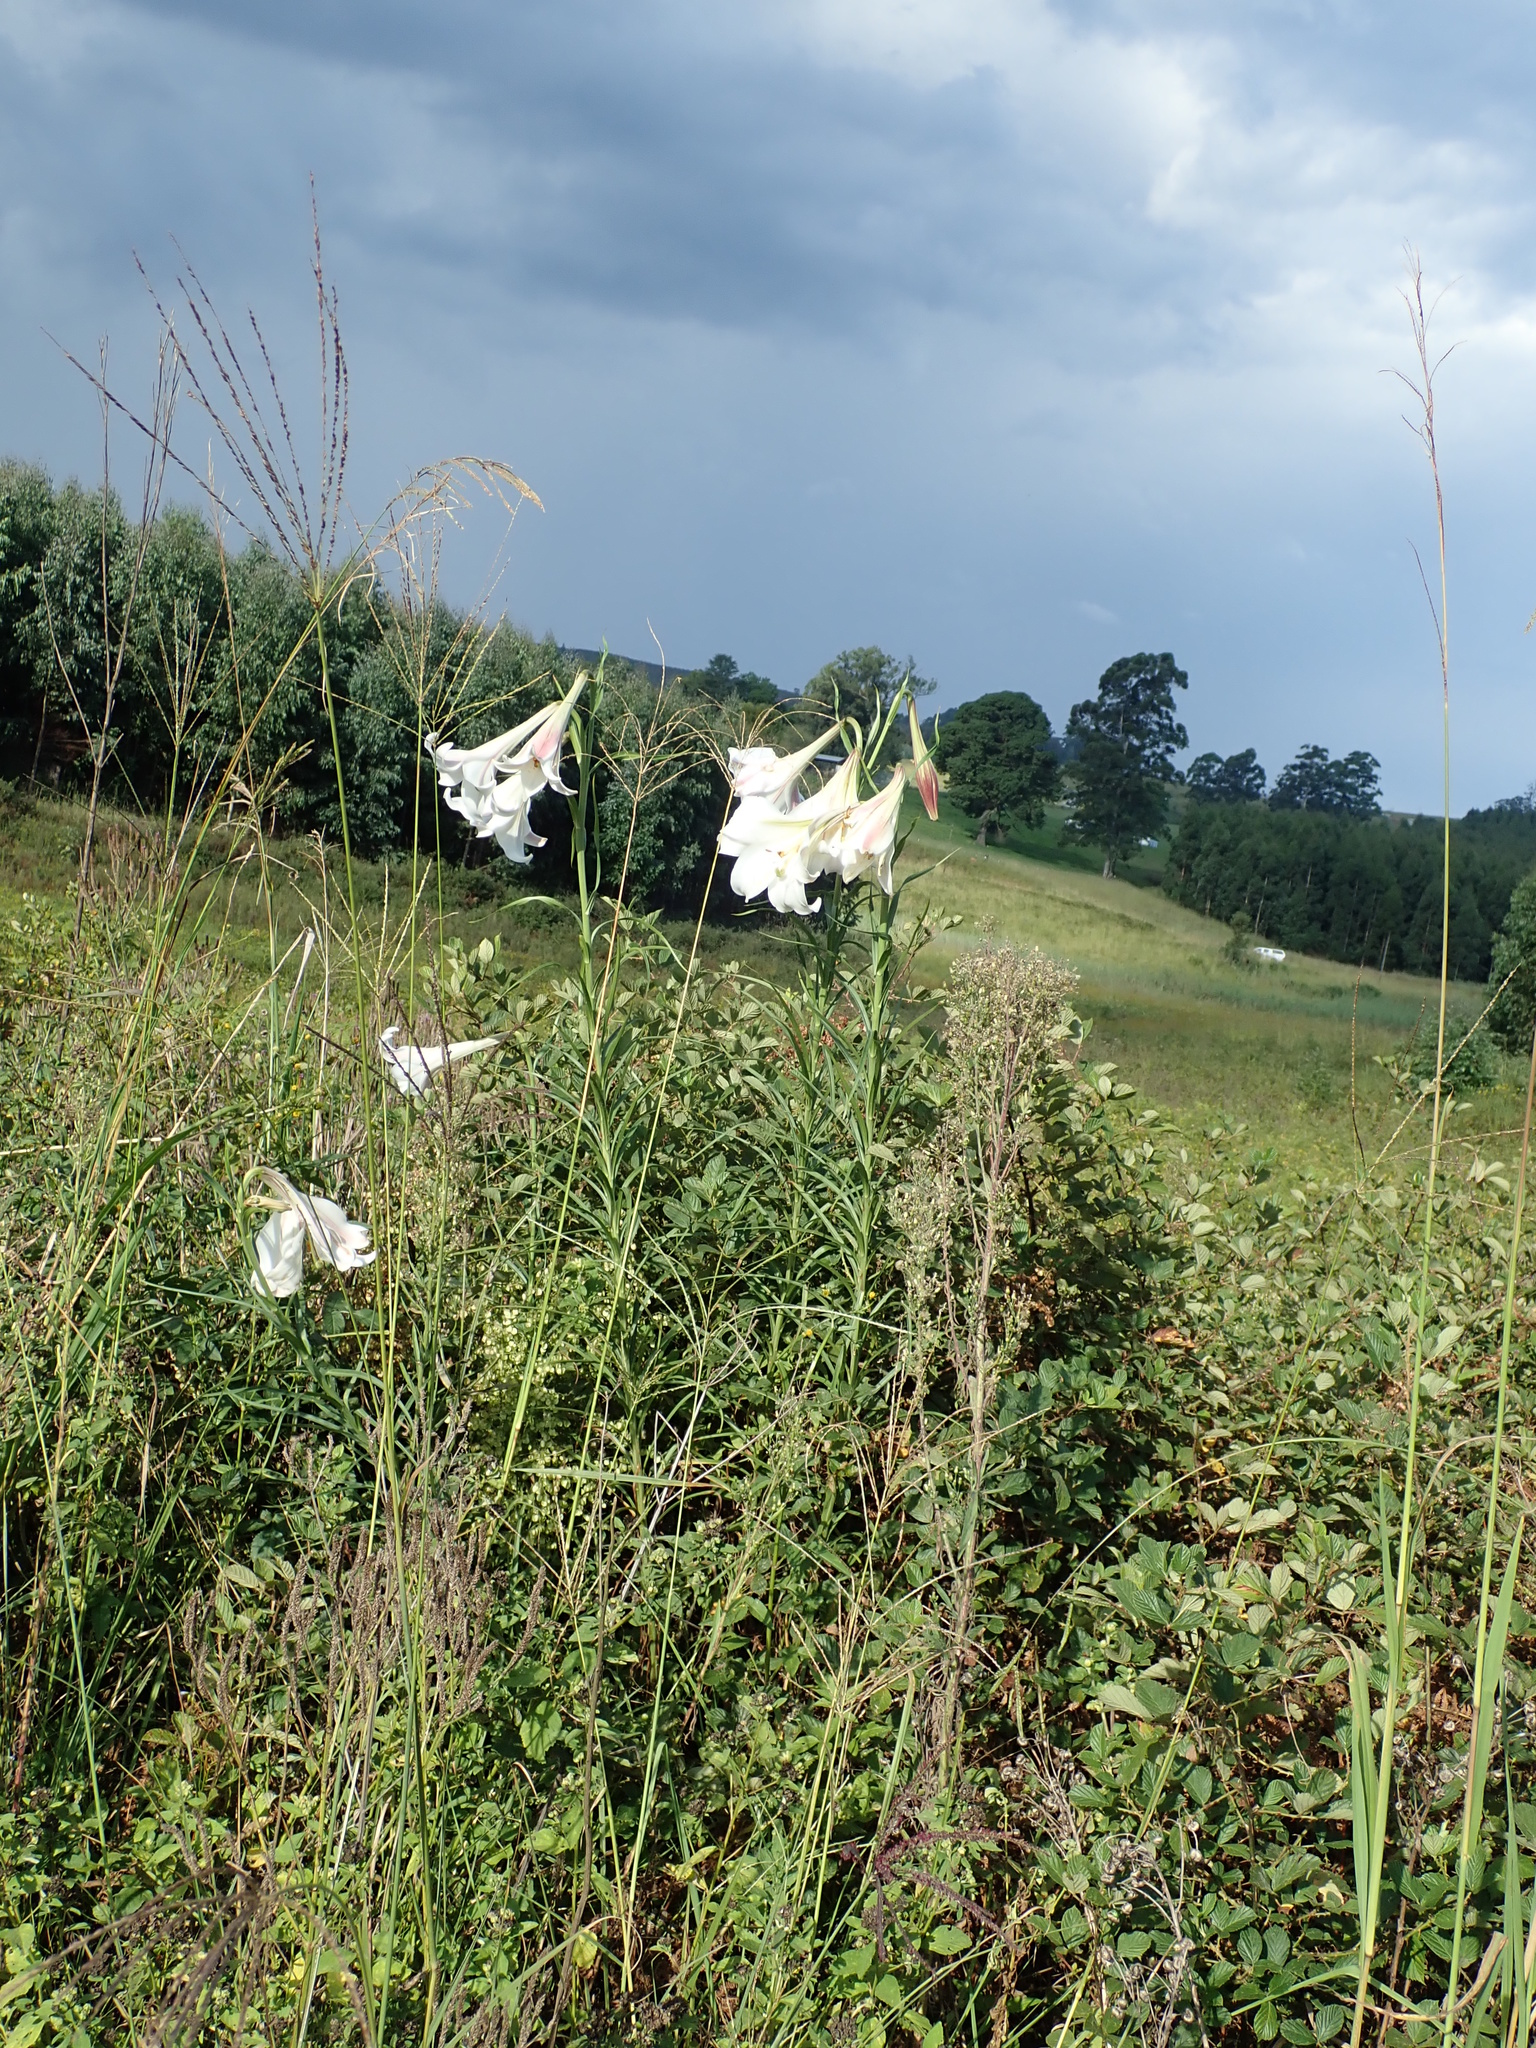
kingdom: Plantae
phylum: Tracheophyta
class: Liliopsida
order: Liliales
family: Liliaceae
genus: Lilium
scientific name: Lilium formosanum
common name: Formosa lily
